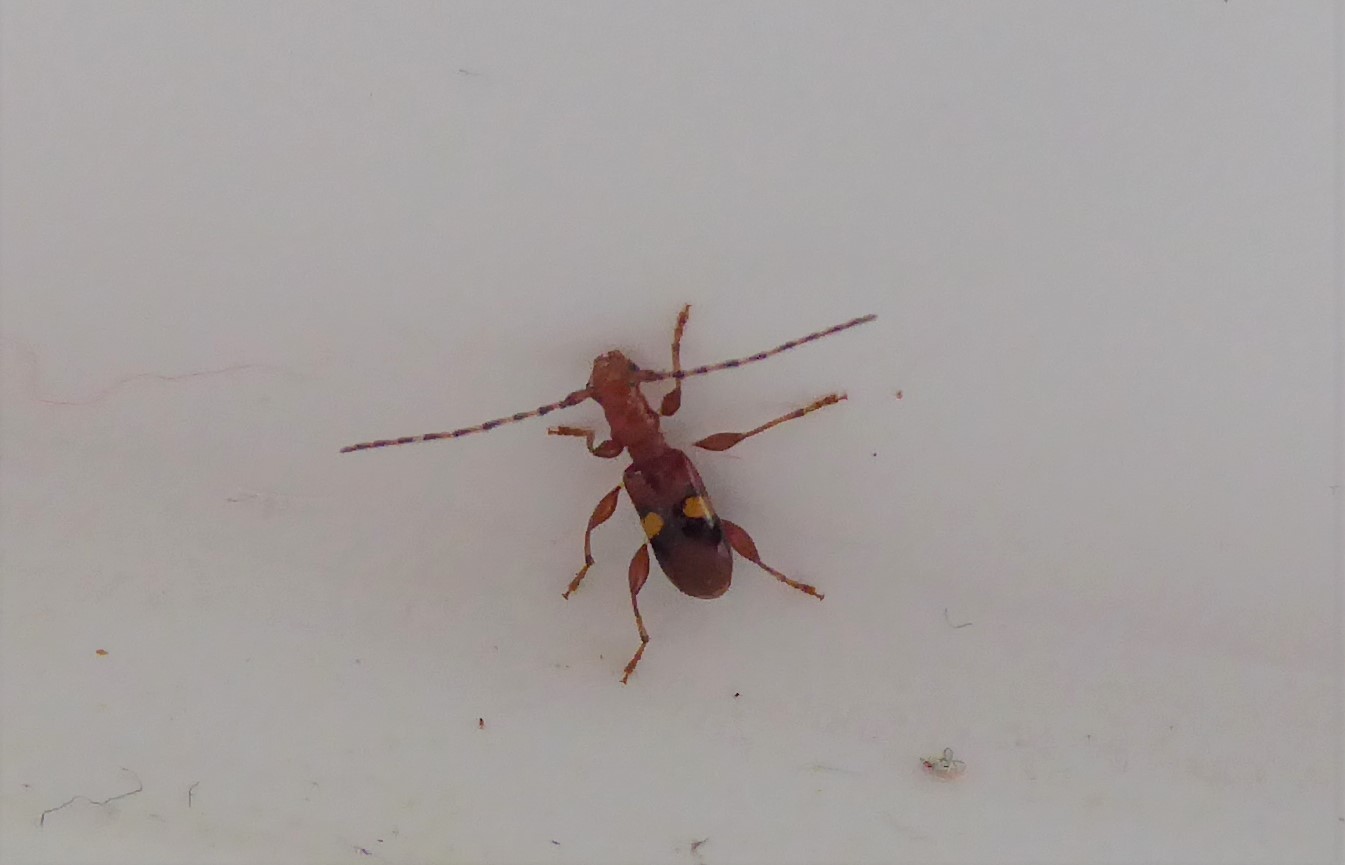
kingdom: Animalia
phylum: Arthropoda
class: Insecta
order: Coleoptera
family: Cerambycidae
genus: Zorion
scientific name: Zorion australe
